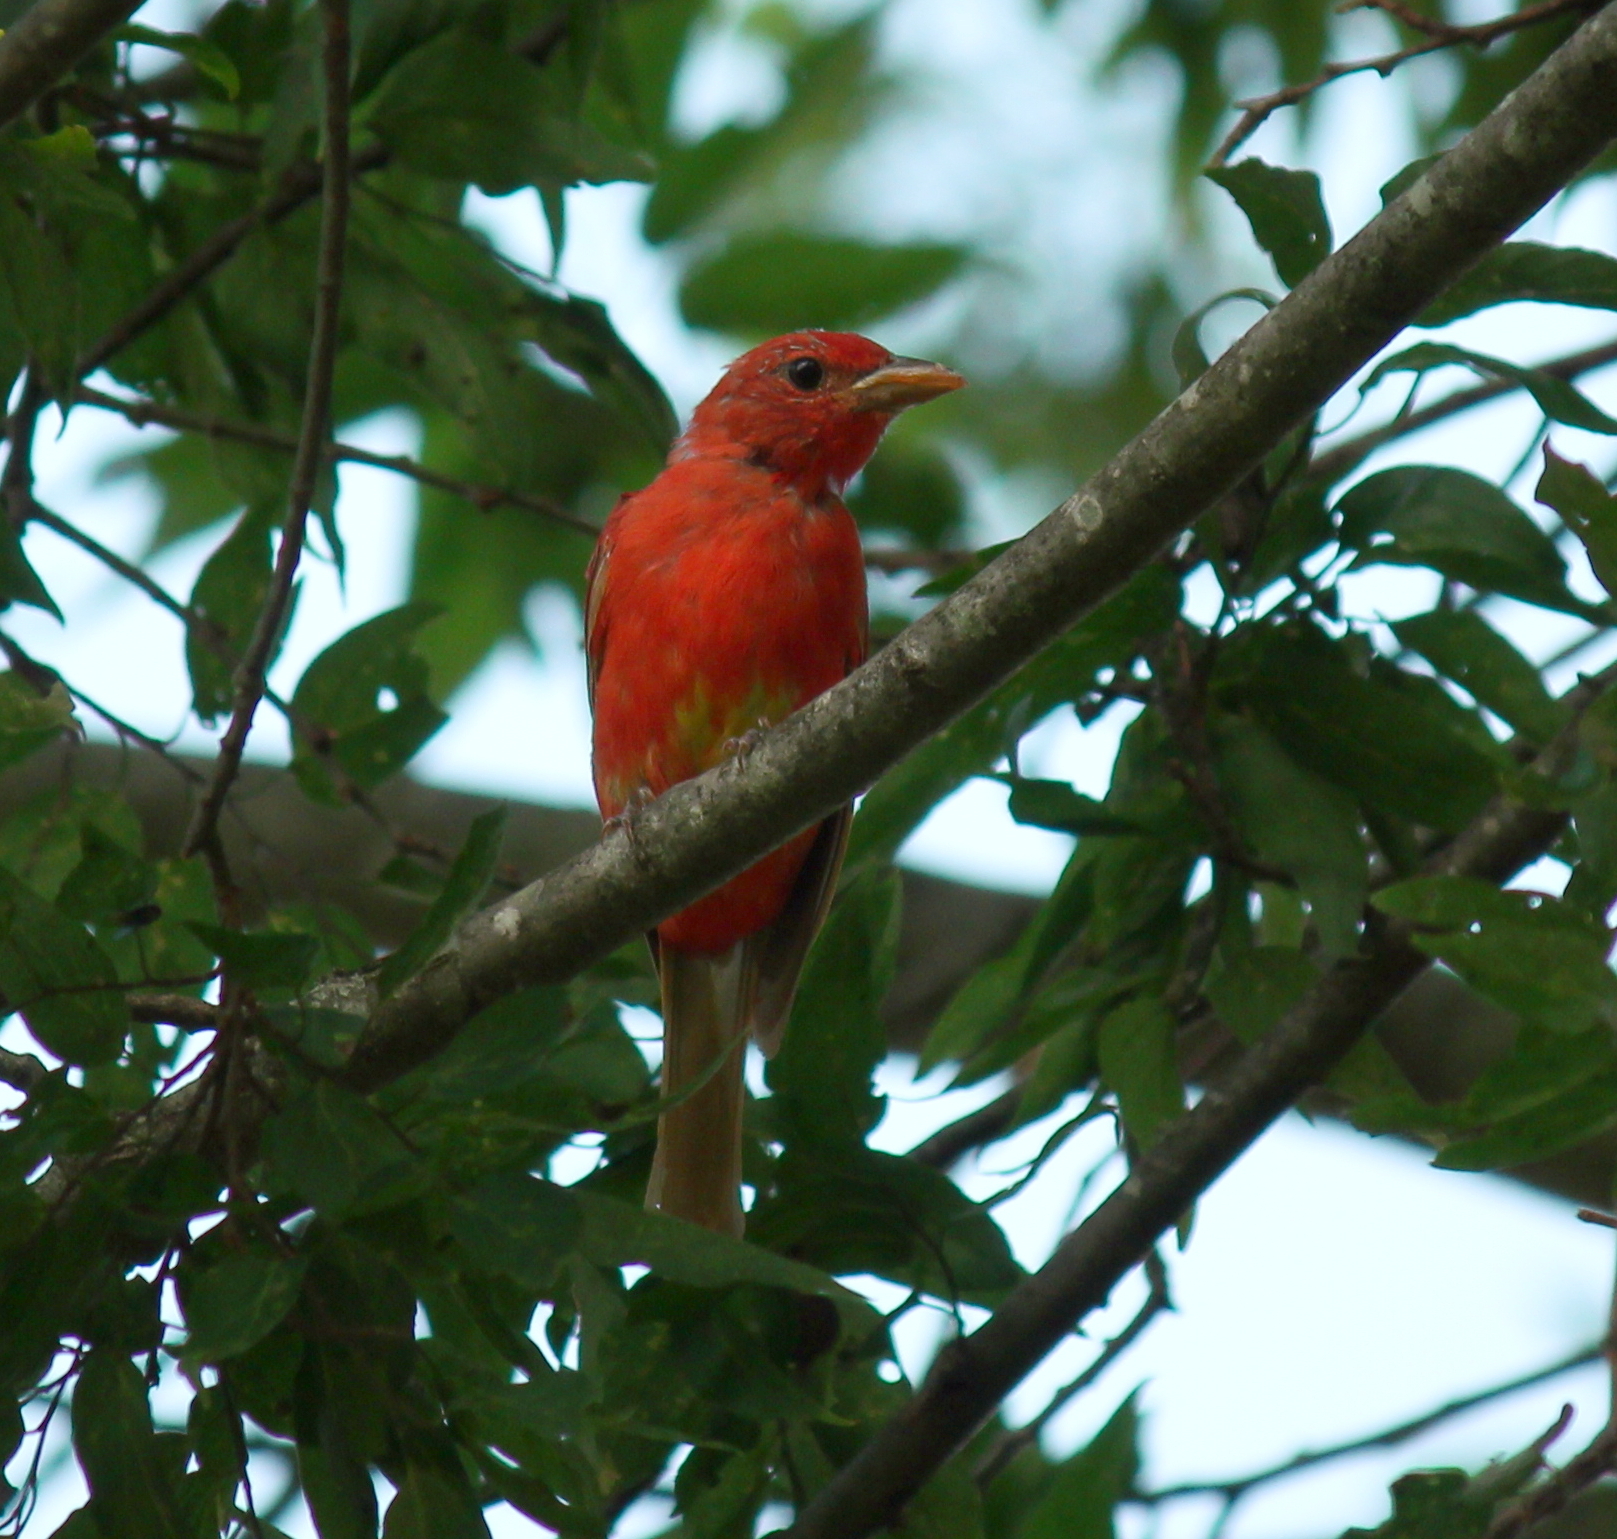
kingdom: Animalia
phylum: Chordata
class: Aves
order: Passeriformes
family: Cardinalidae
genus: Piranga
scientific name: Piranga rubra
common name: Summer tanager
